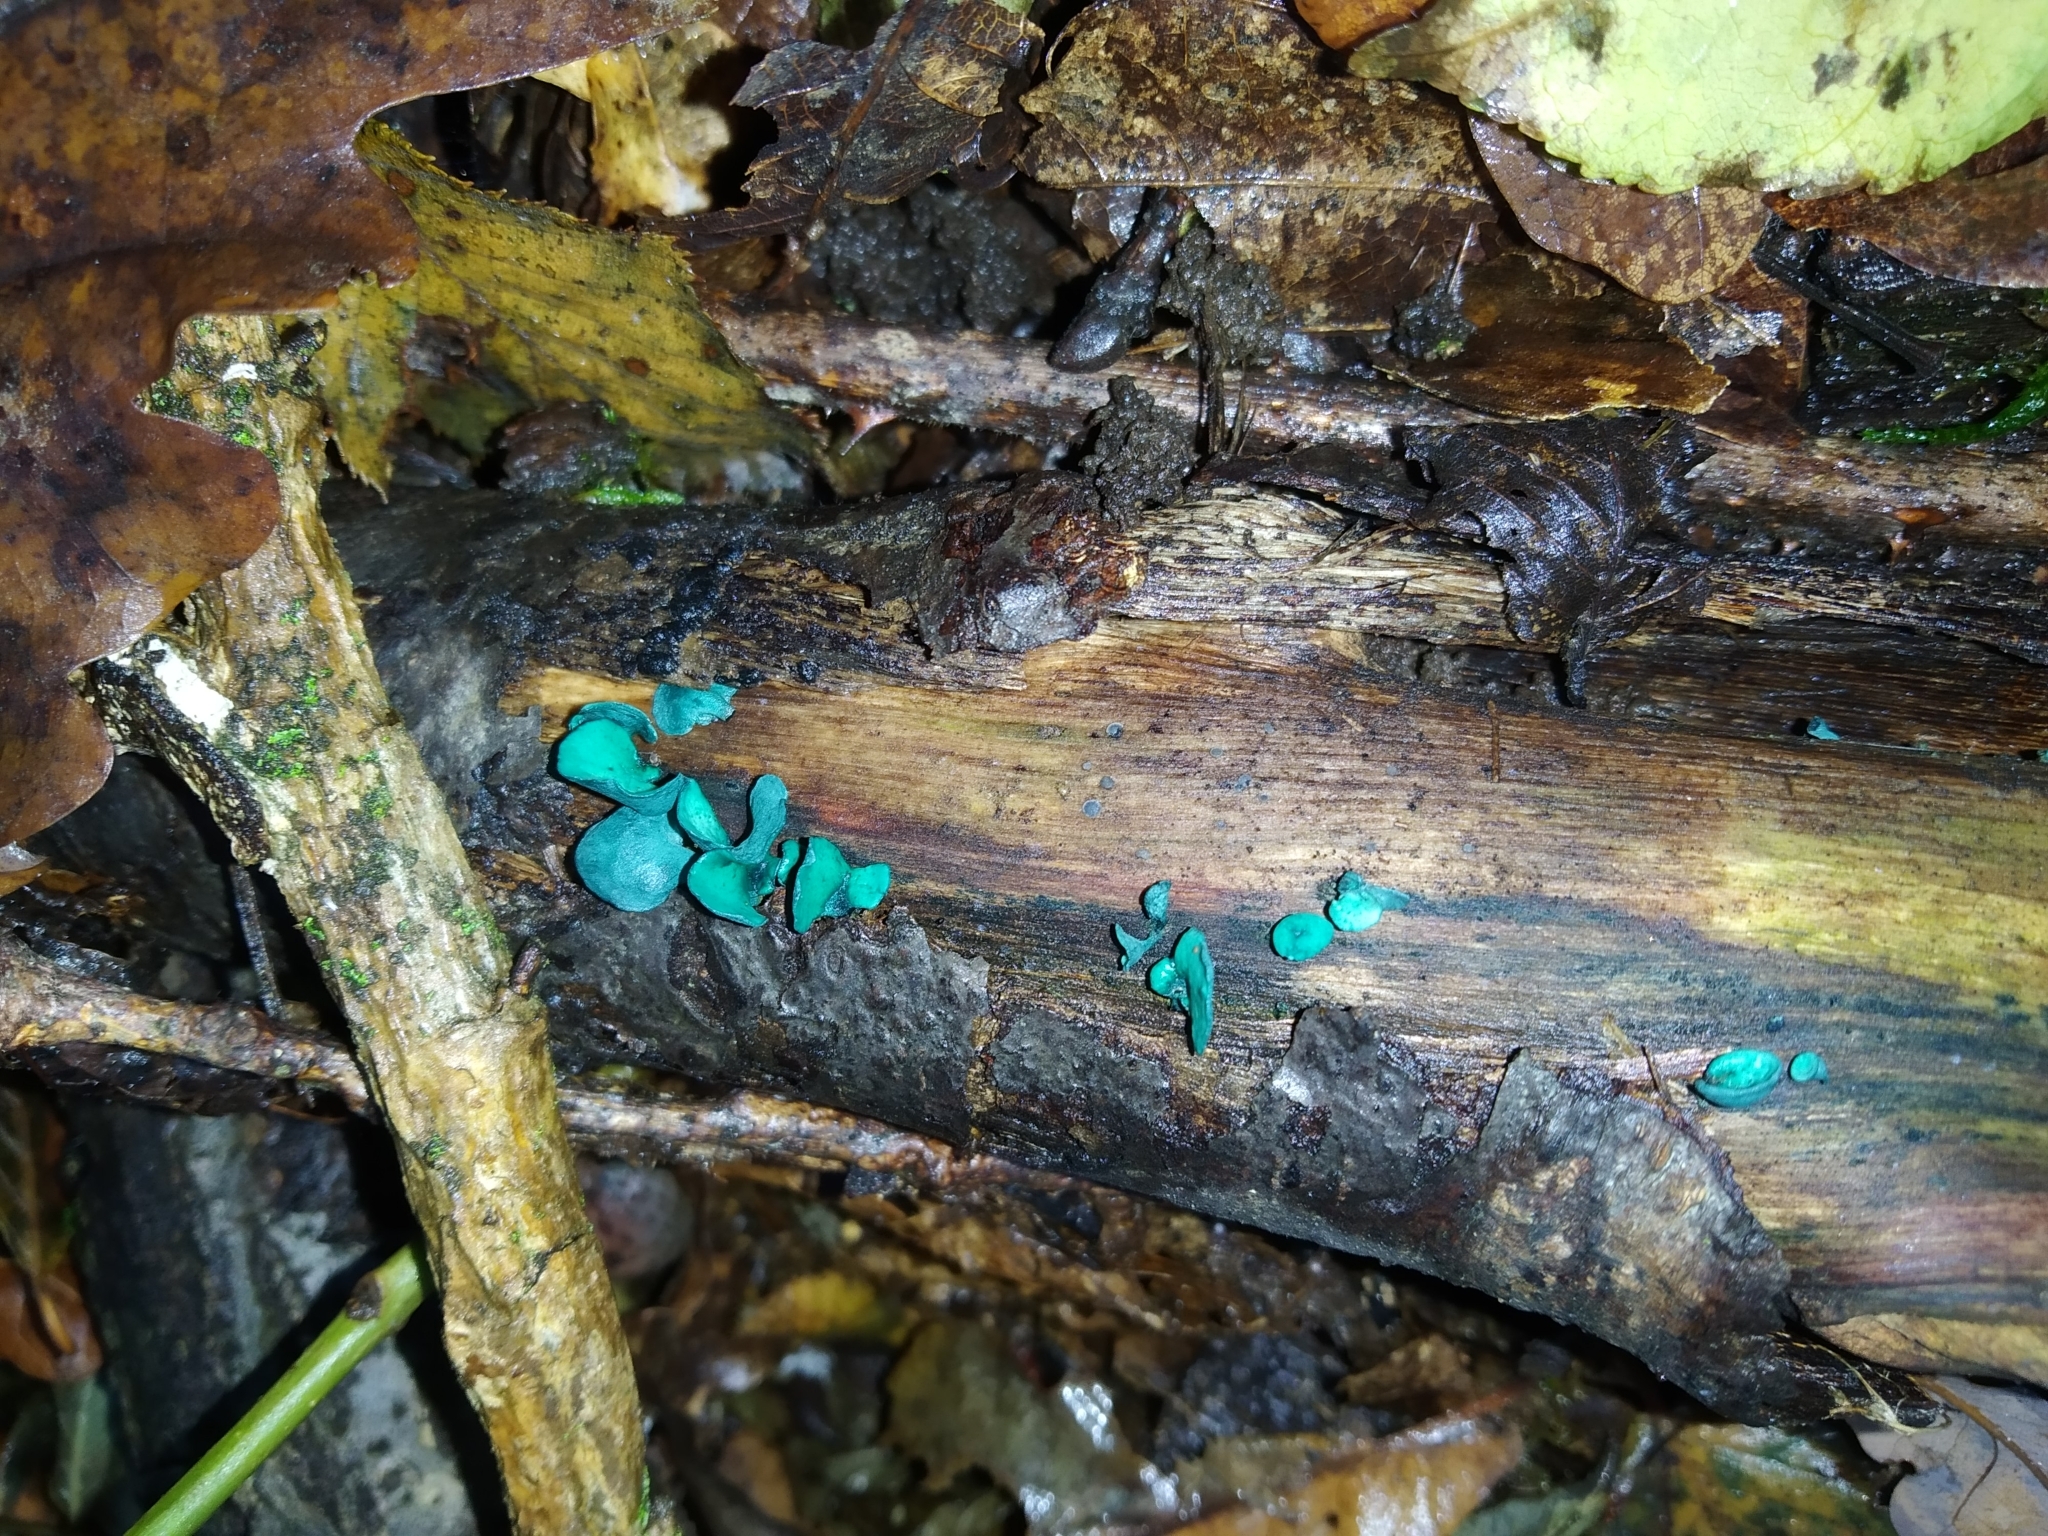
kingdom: Fungi
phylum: Ascomycota
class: Leotiomycetes
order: Helotiales
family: Chlorociboriaceae
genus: Chlorociboria
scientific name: Chlorociboria aeruginascens
